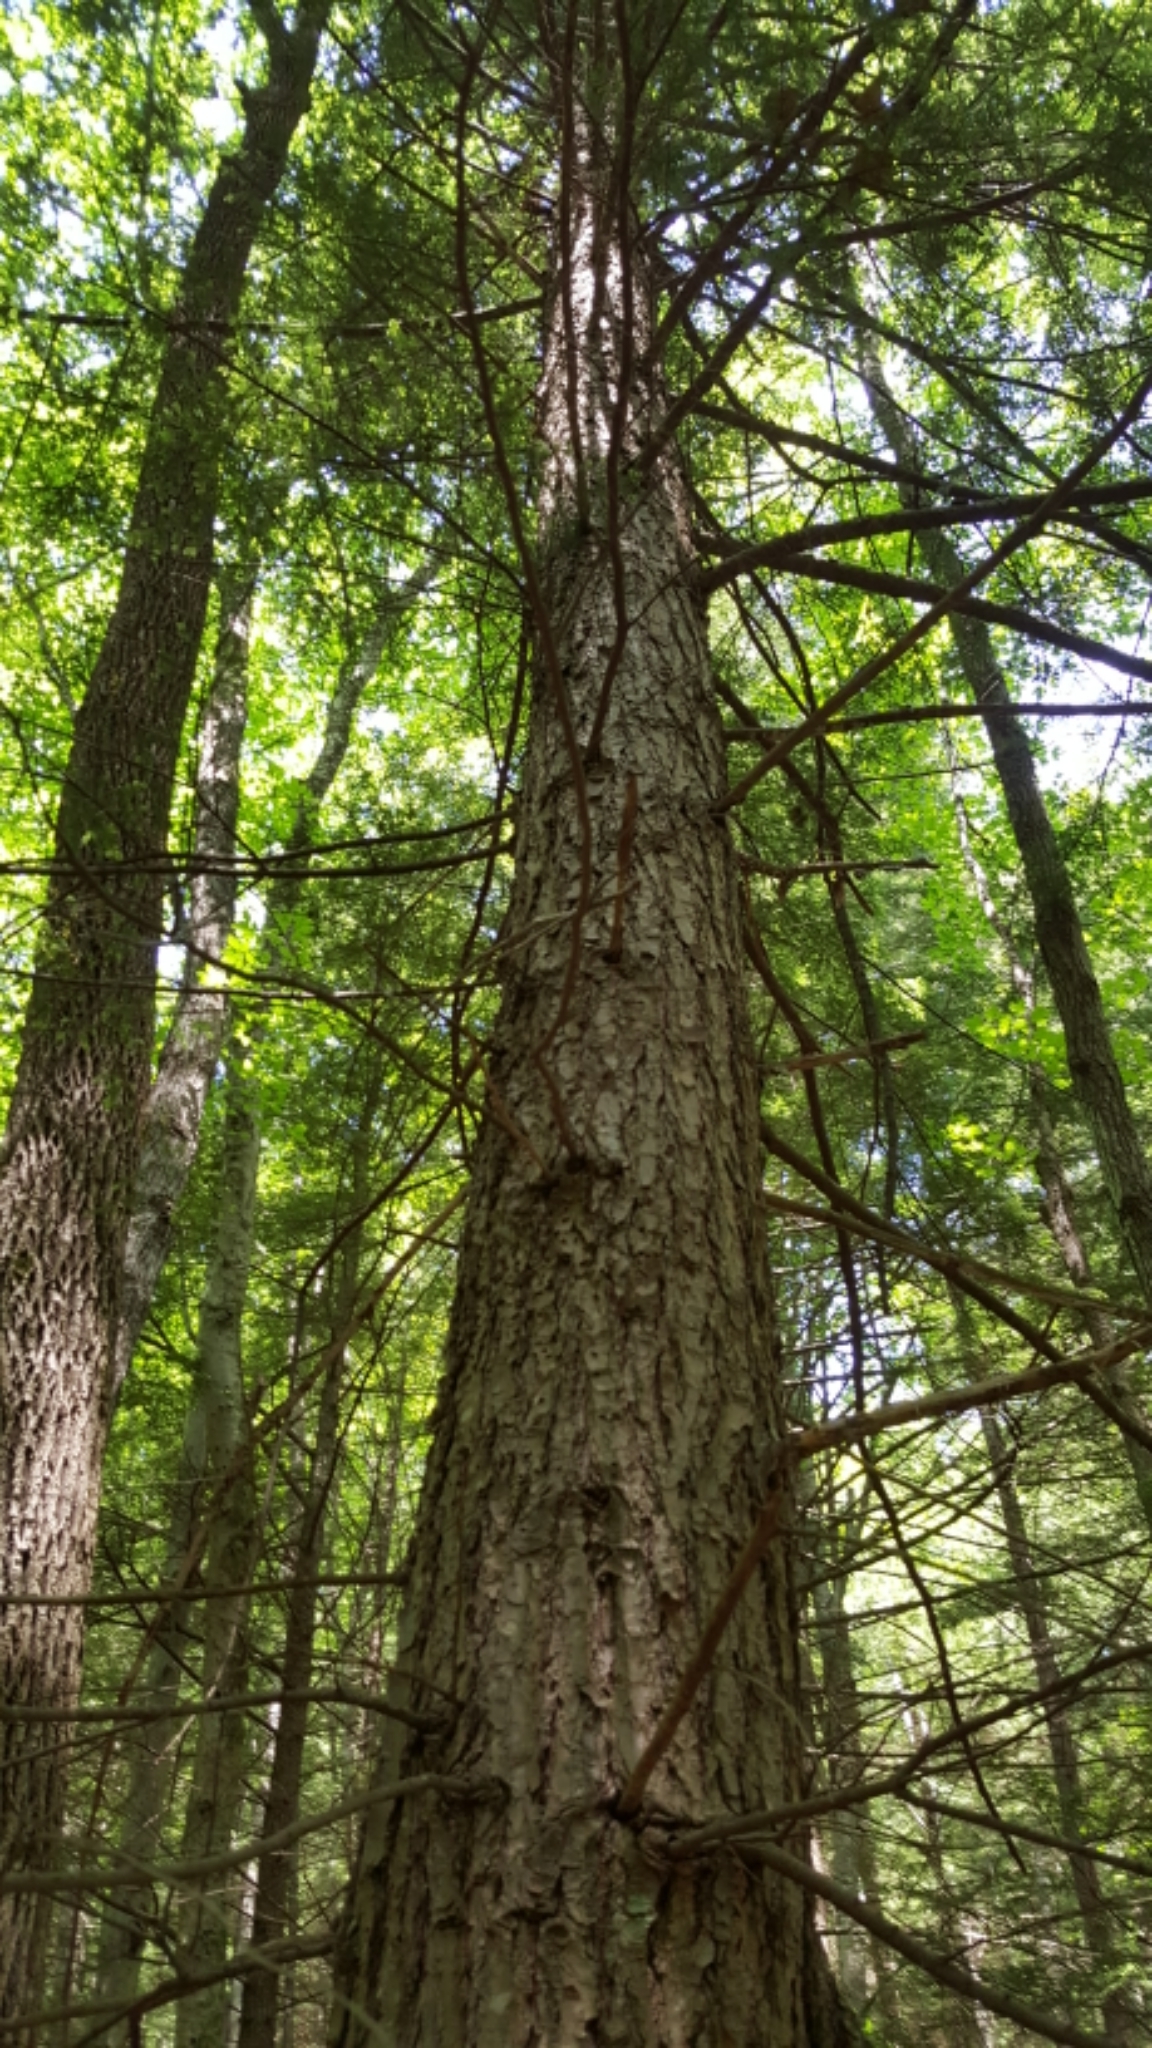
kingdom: Plantae
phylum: Tracheophyta
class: Pinopsida
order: Pinales
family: Pinaceae
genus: Tsuga
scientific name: Tsuga canadensis
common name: Eastern hemlock
